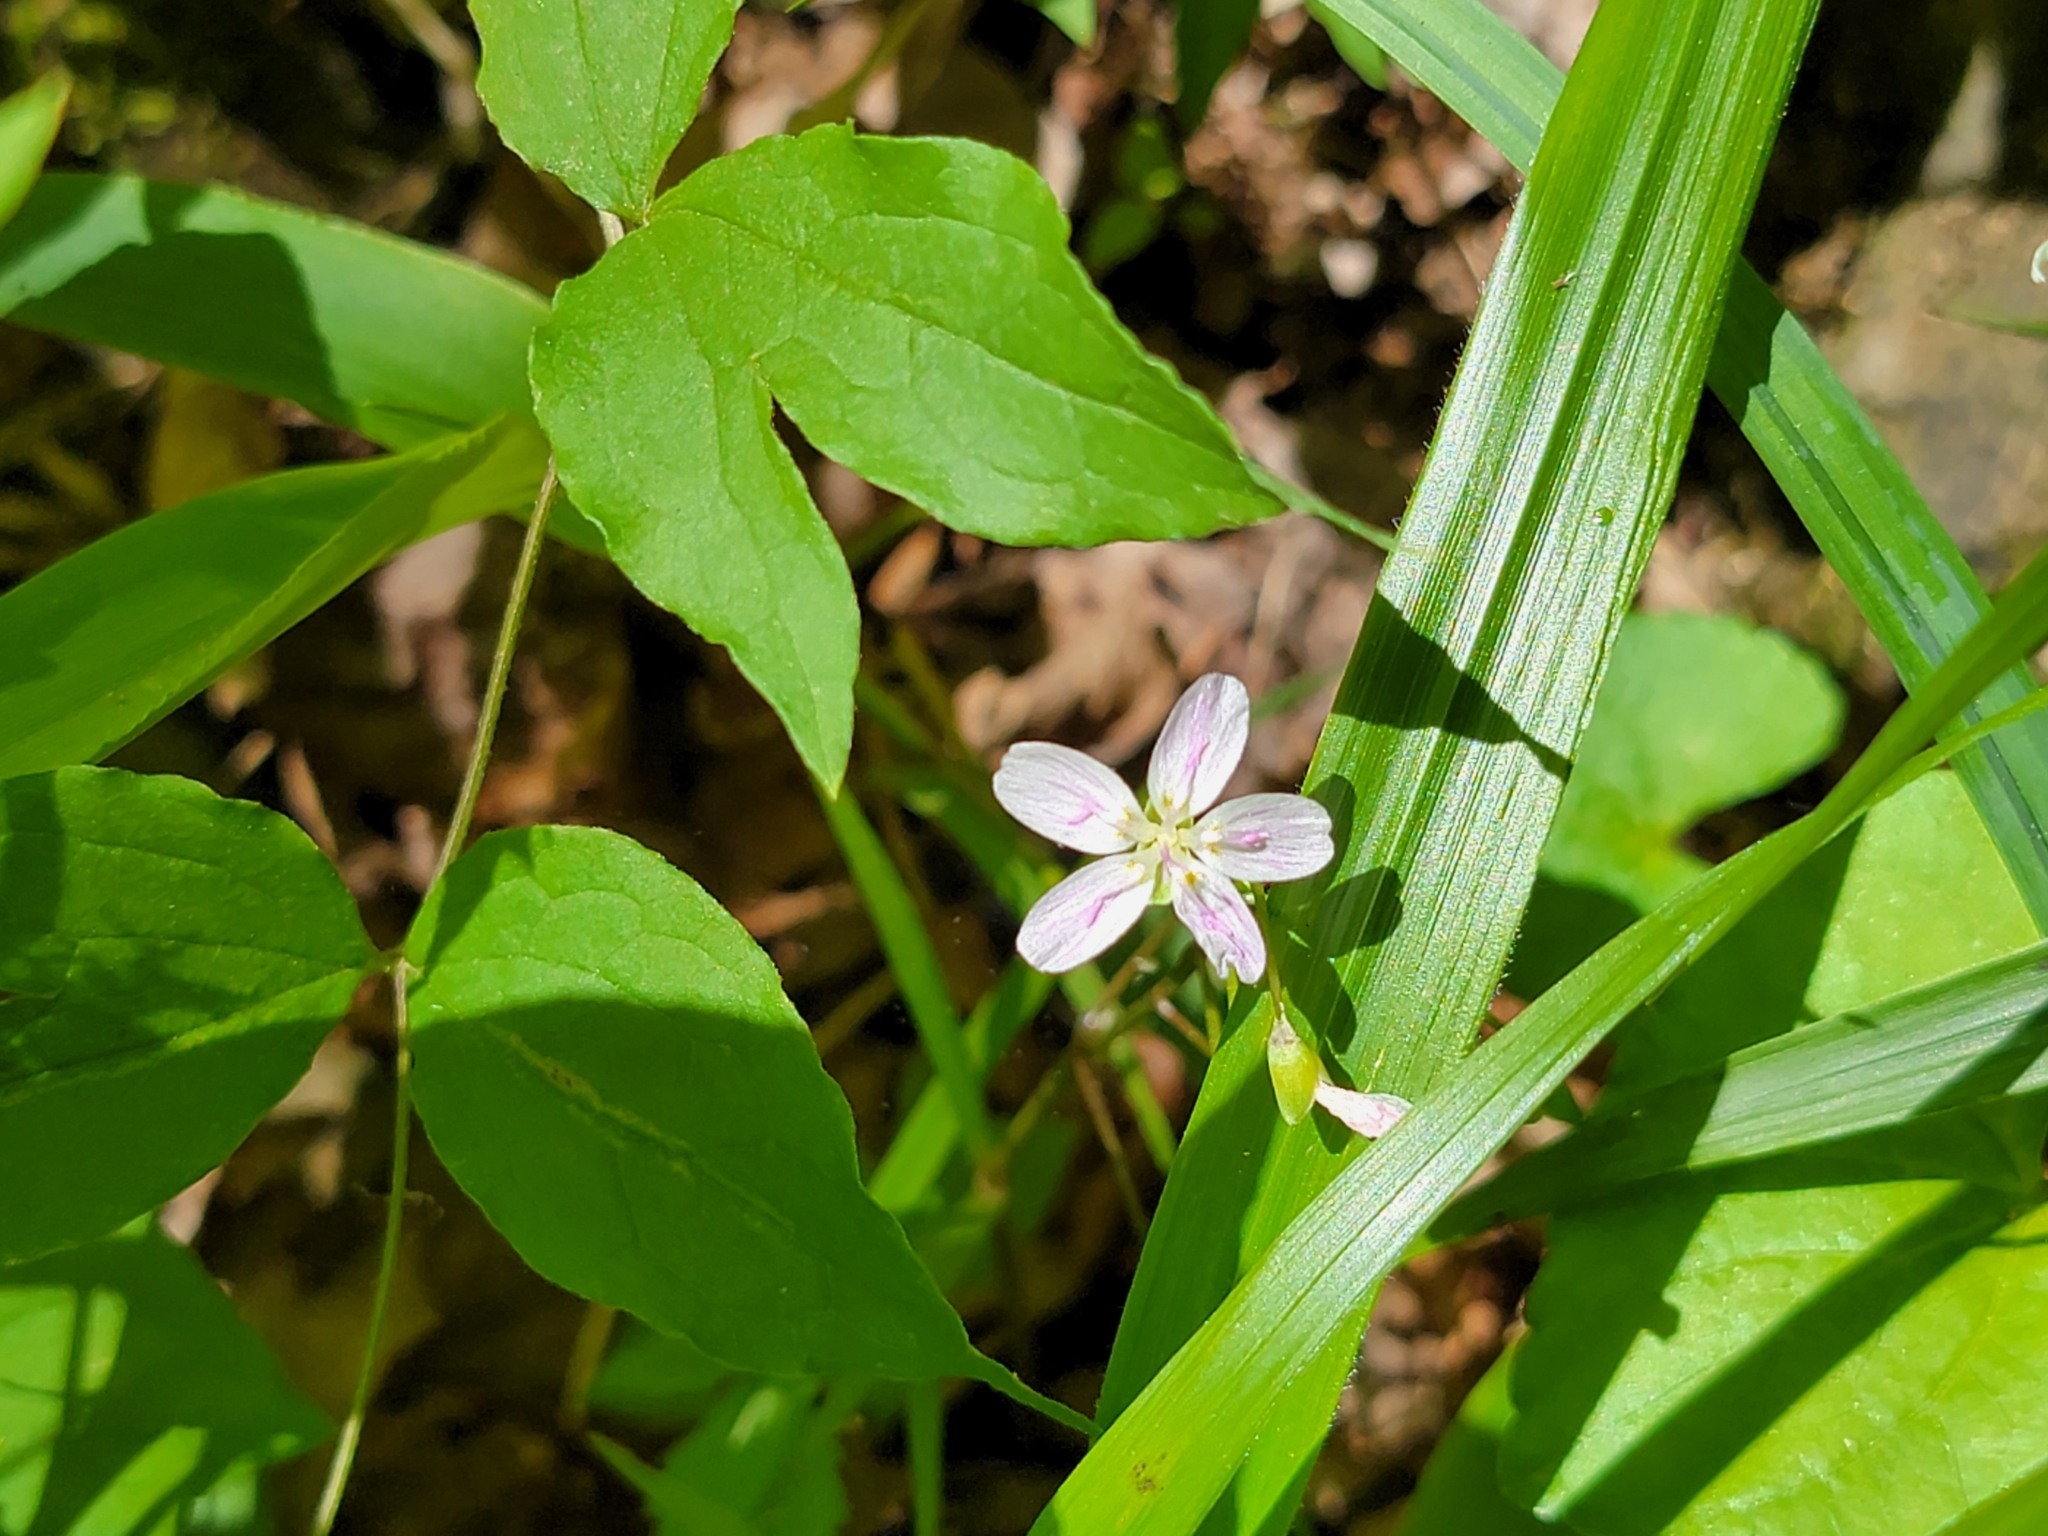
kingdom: Plantae
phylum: Tracheophyta
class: Magnoliopsida
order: Caryophyllales
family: Montiaceae
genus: Claytonia
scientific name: Claytonia virginica
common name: Virginia springbeauty
